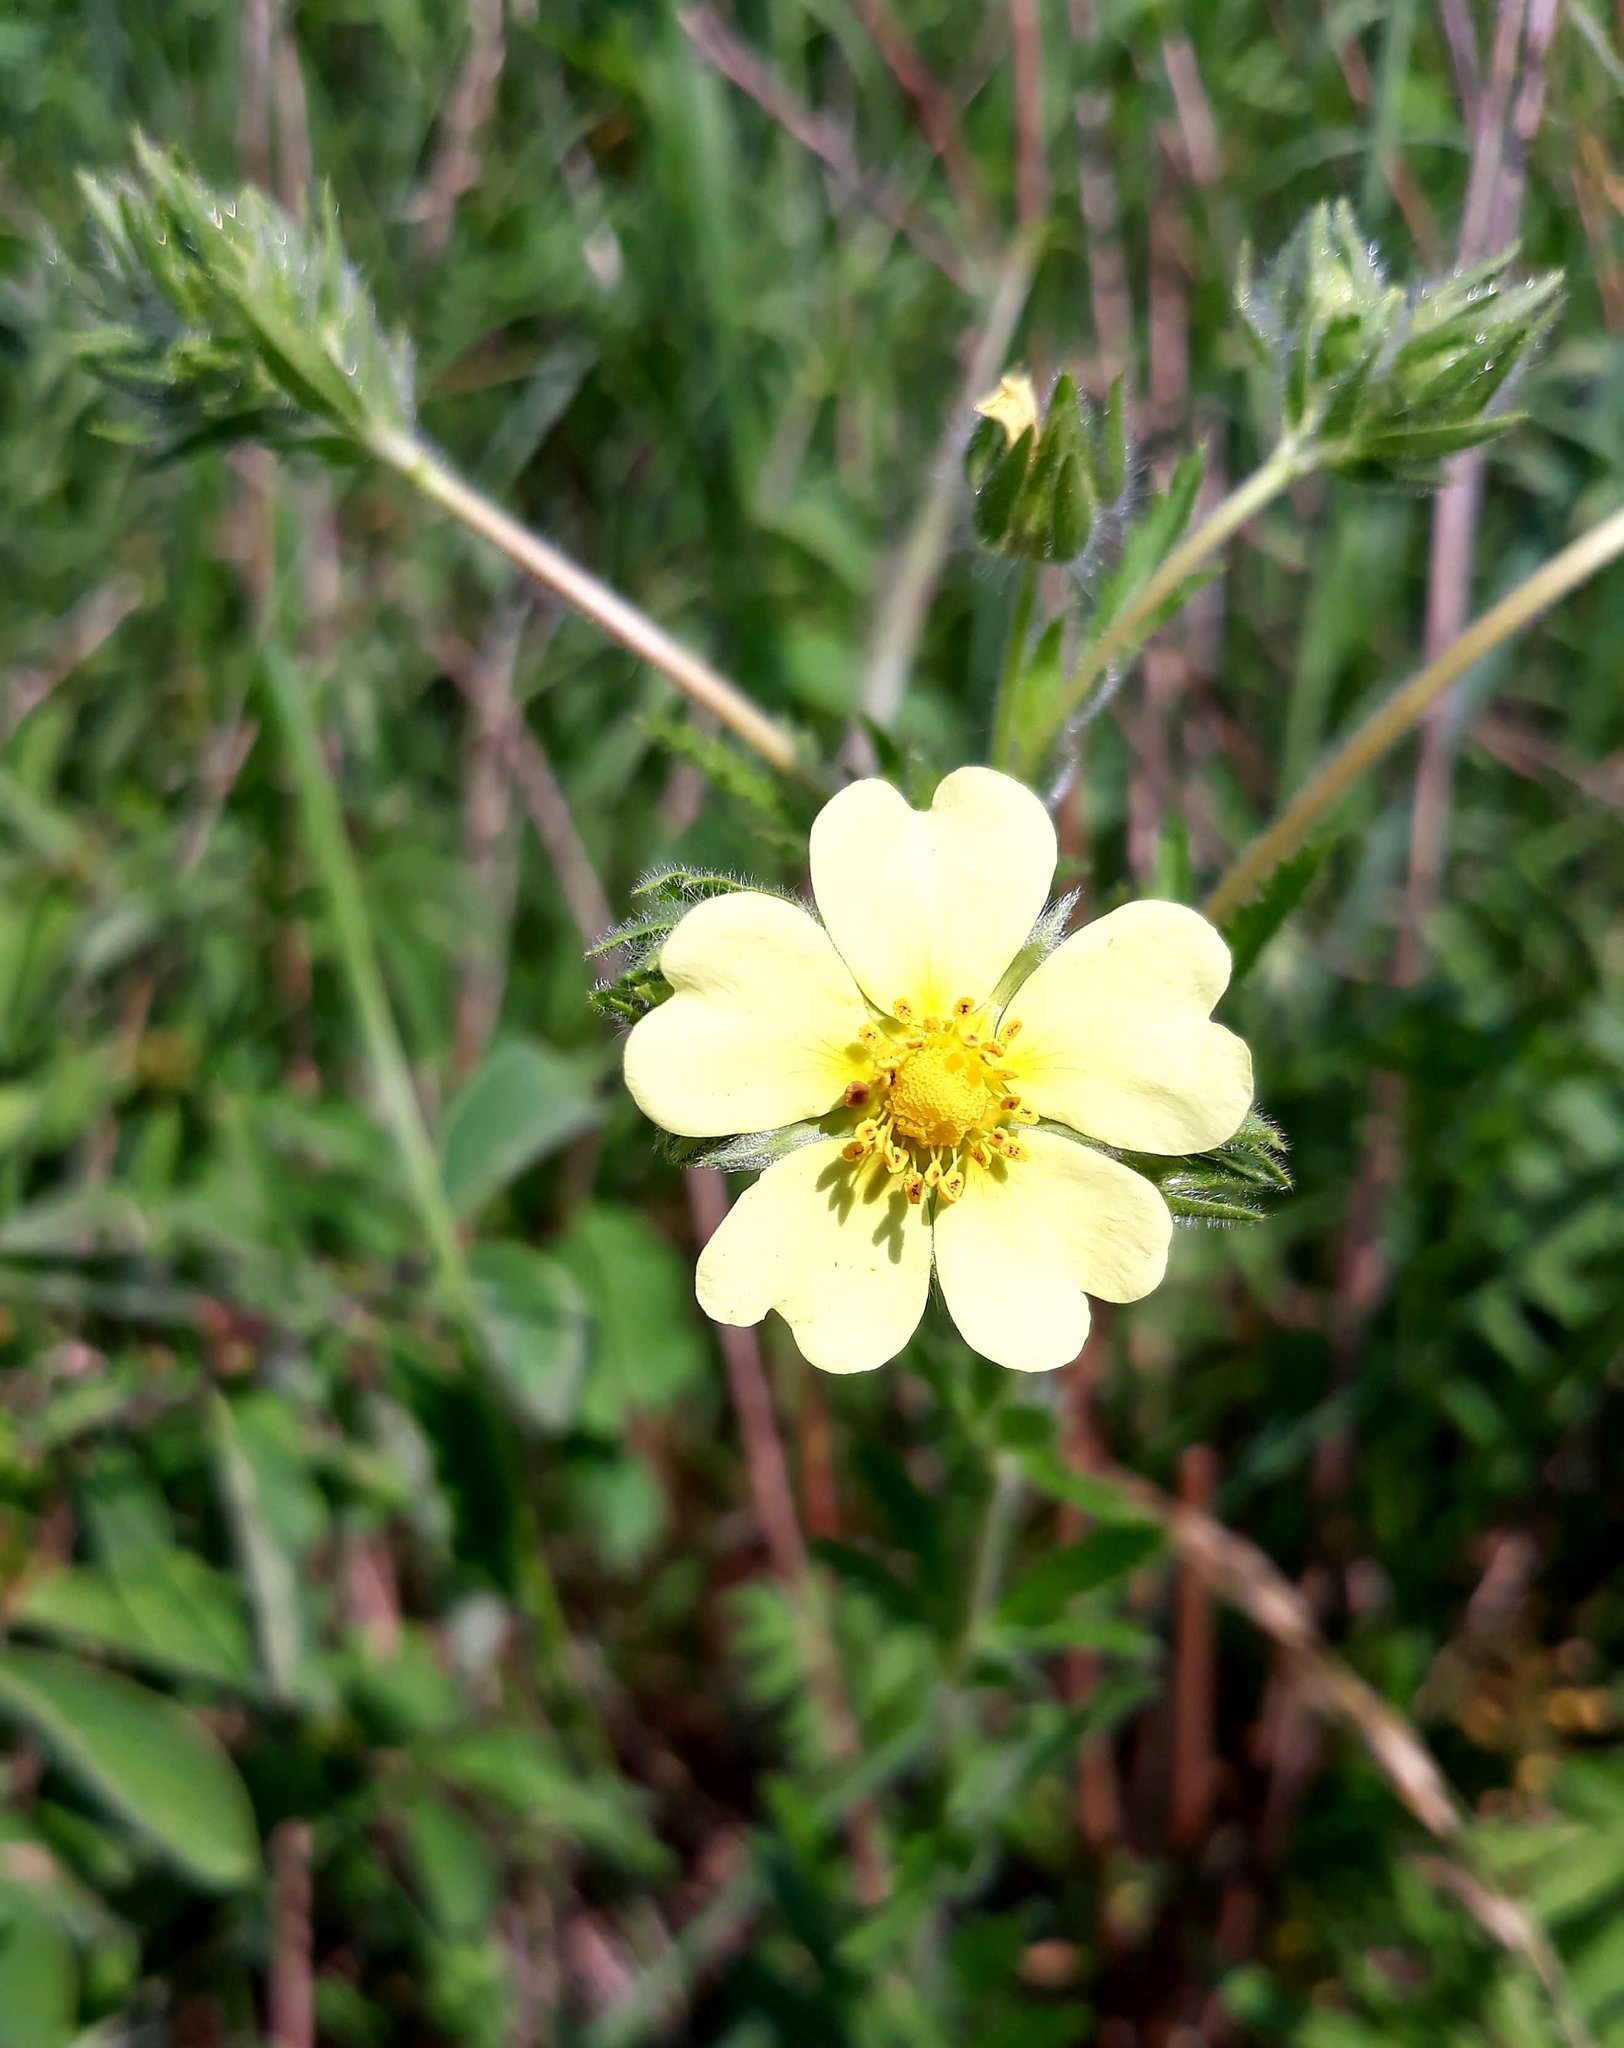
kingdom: Plantae
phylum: Tracheophyta
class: Magnoliopsida
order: Rosales
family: Rosaceae
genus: Potentilla
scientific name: Potentilla recta
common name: Sulphur cinquefoil
